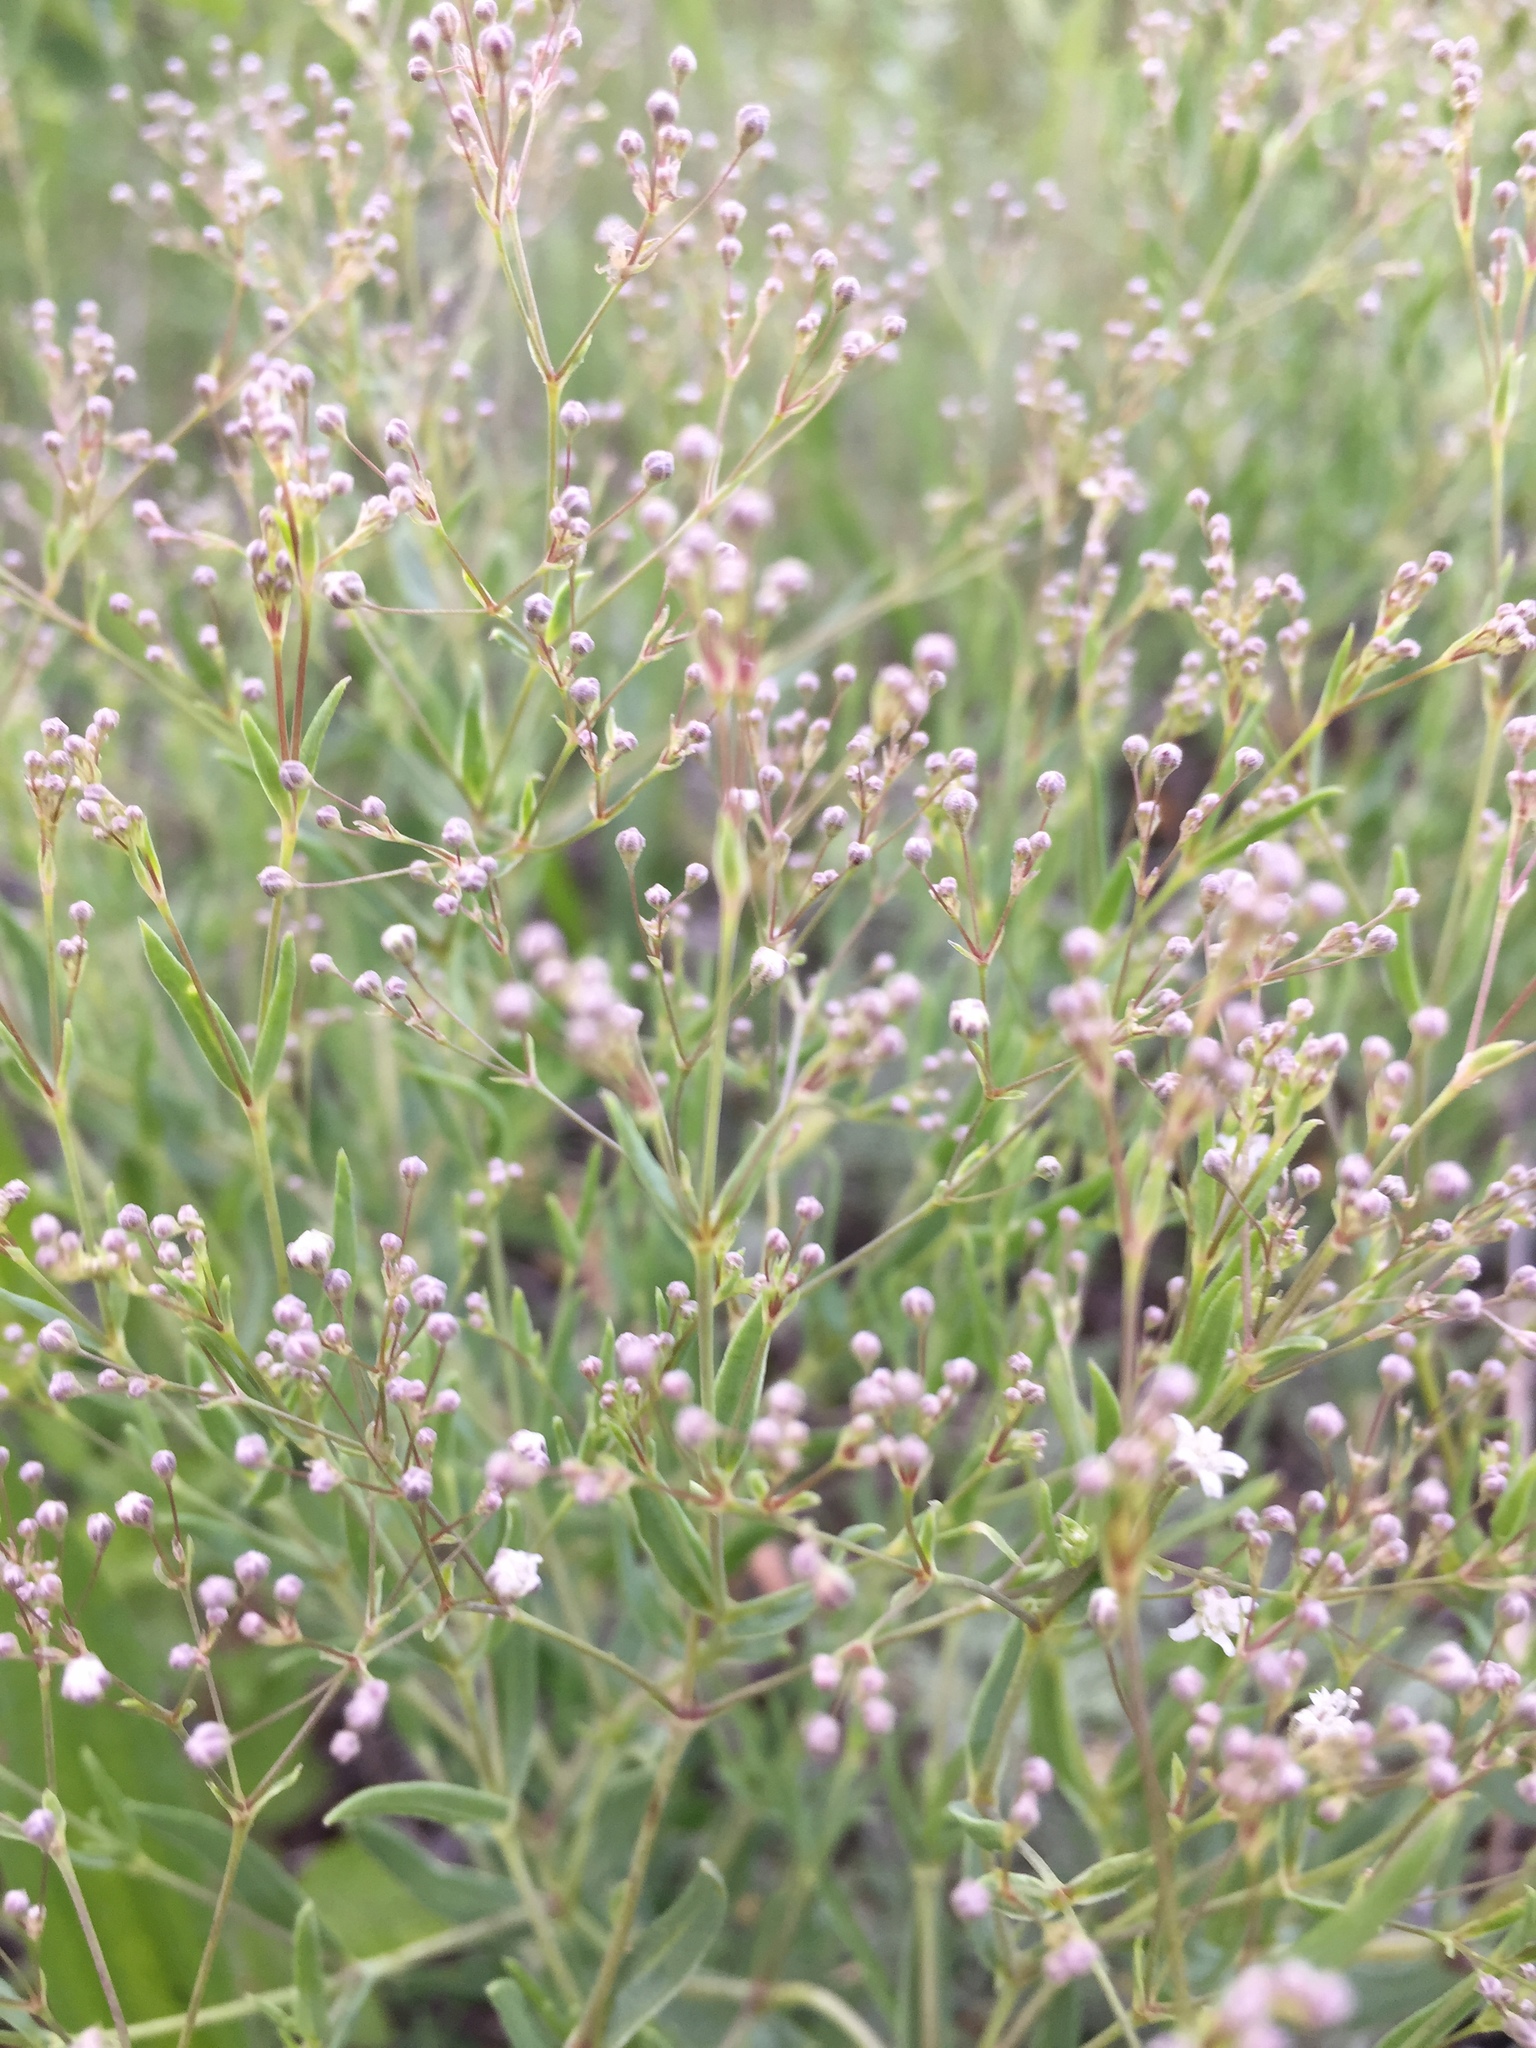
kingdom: Plantae
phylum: Tracheophyta
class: Magnoliopsida
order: Caryophyllales
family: Caryophyllaceae
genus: Gypsophila
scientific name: Gypsophila paniculata
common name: Baby's-breath
